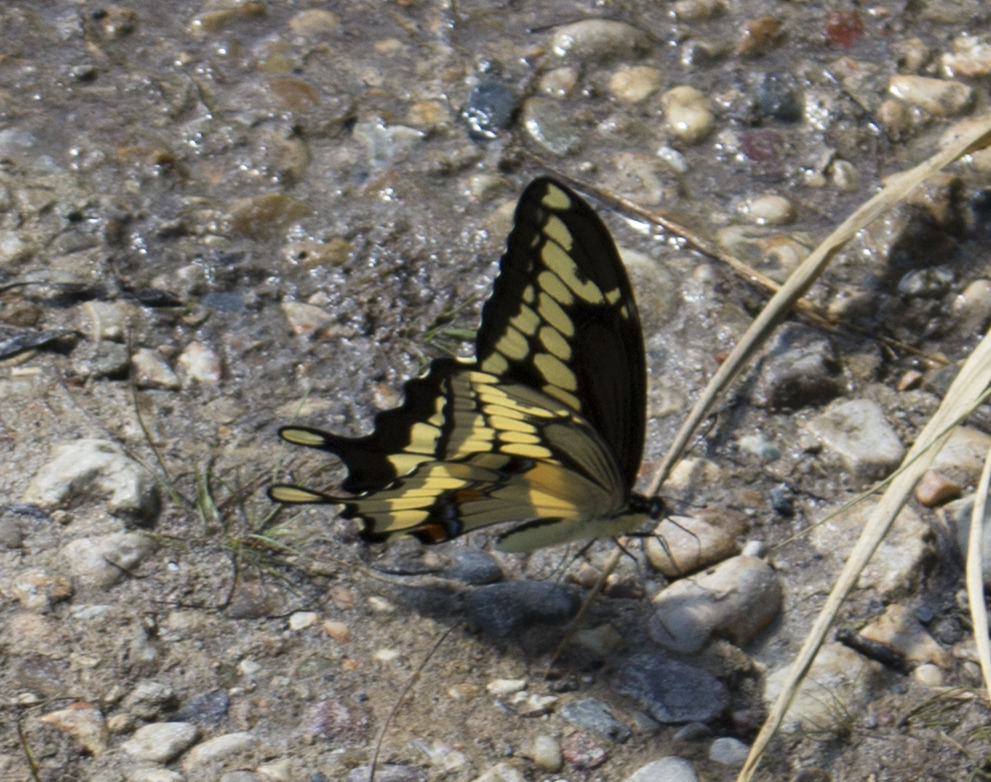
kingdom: Animalia
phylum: Arthropoda
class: Insecta
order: Lepidoptera
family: Papilionidae
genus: Papilio
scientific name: Papilio cresphontes
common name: Giant swallowtail
